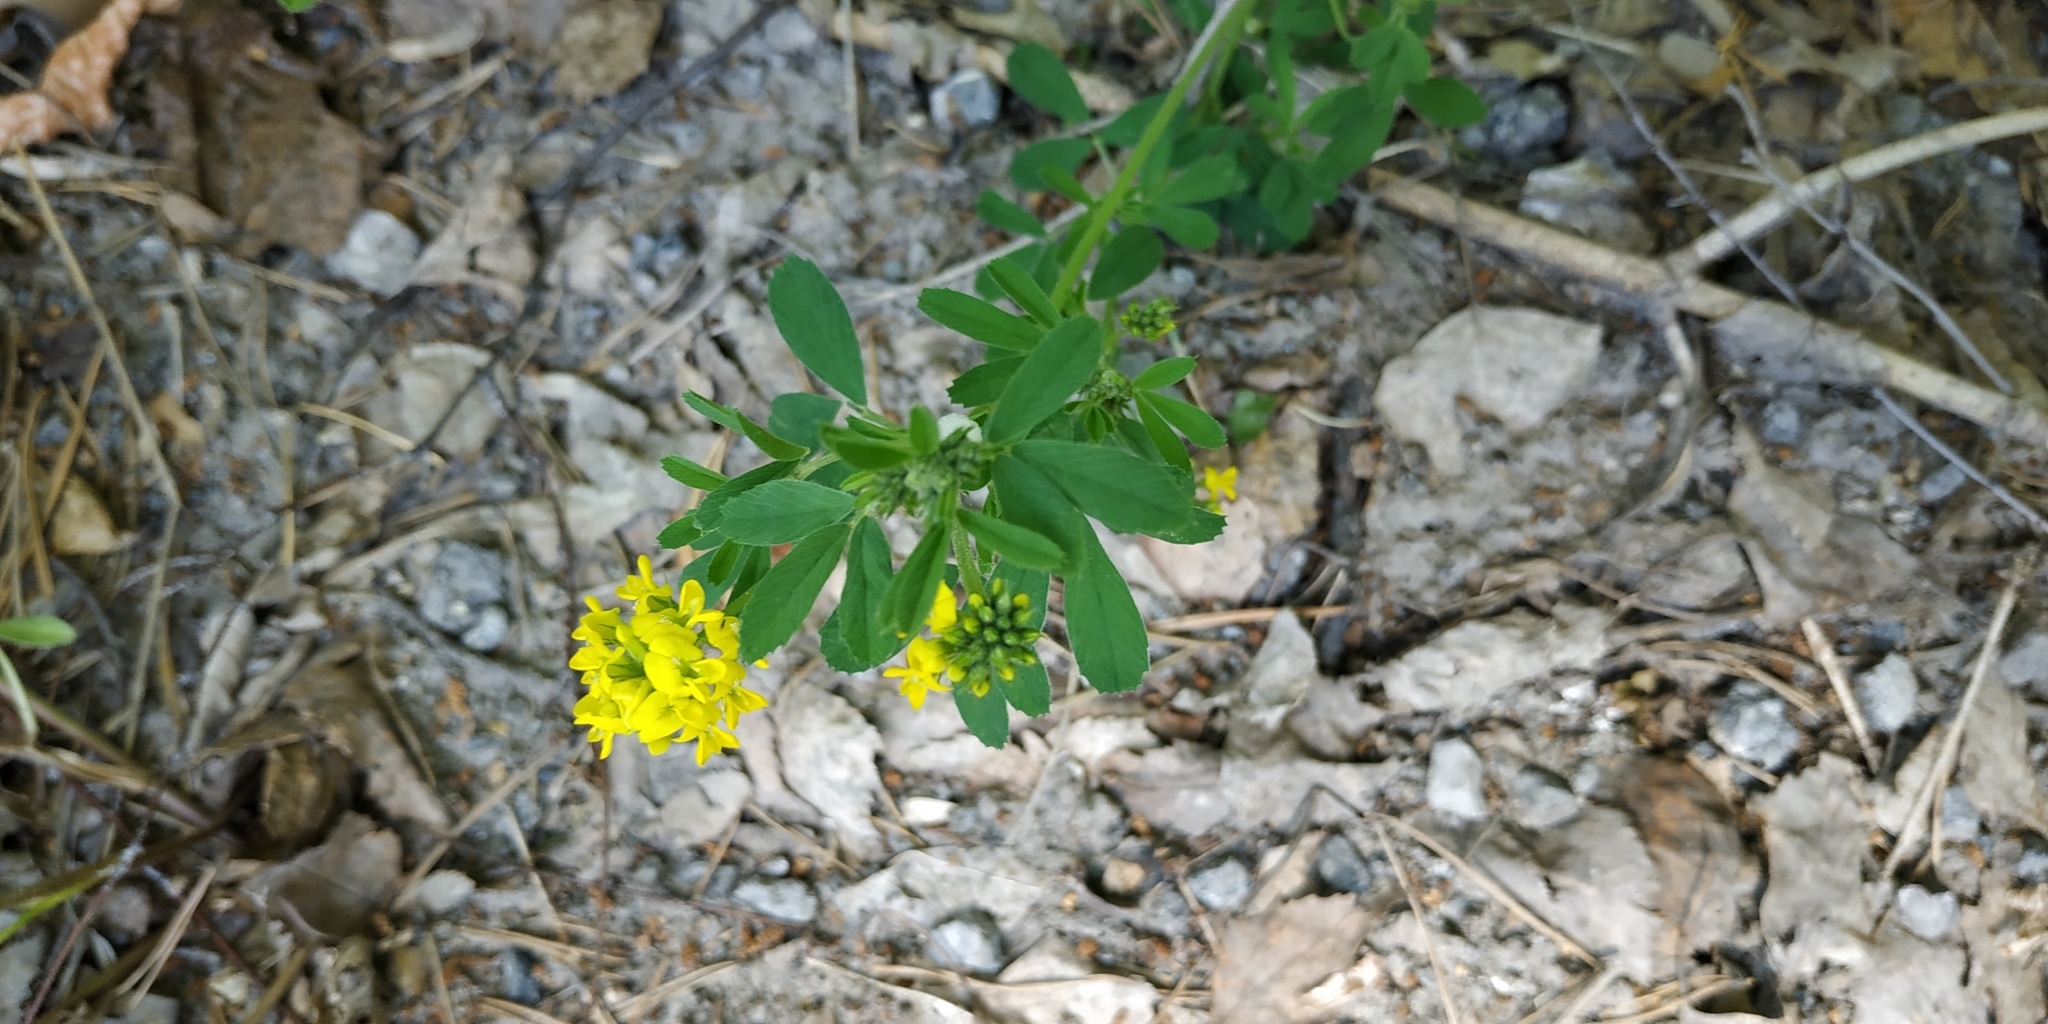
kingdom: Plantae
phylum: Tracheophyta
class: Magnoliopsida
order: Fabales
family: Fabaceae
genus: Medicago
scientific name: Medicago falcata
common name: Sickle medick
